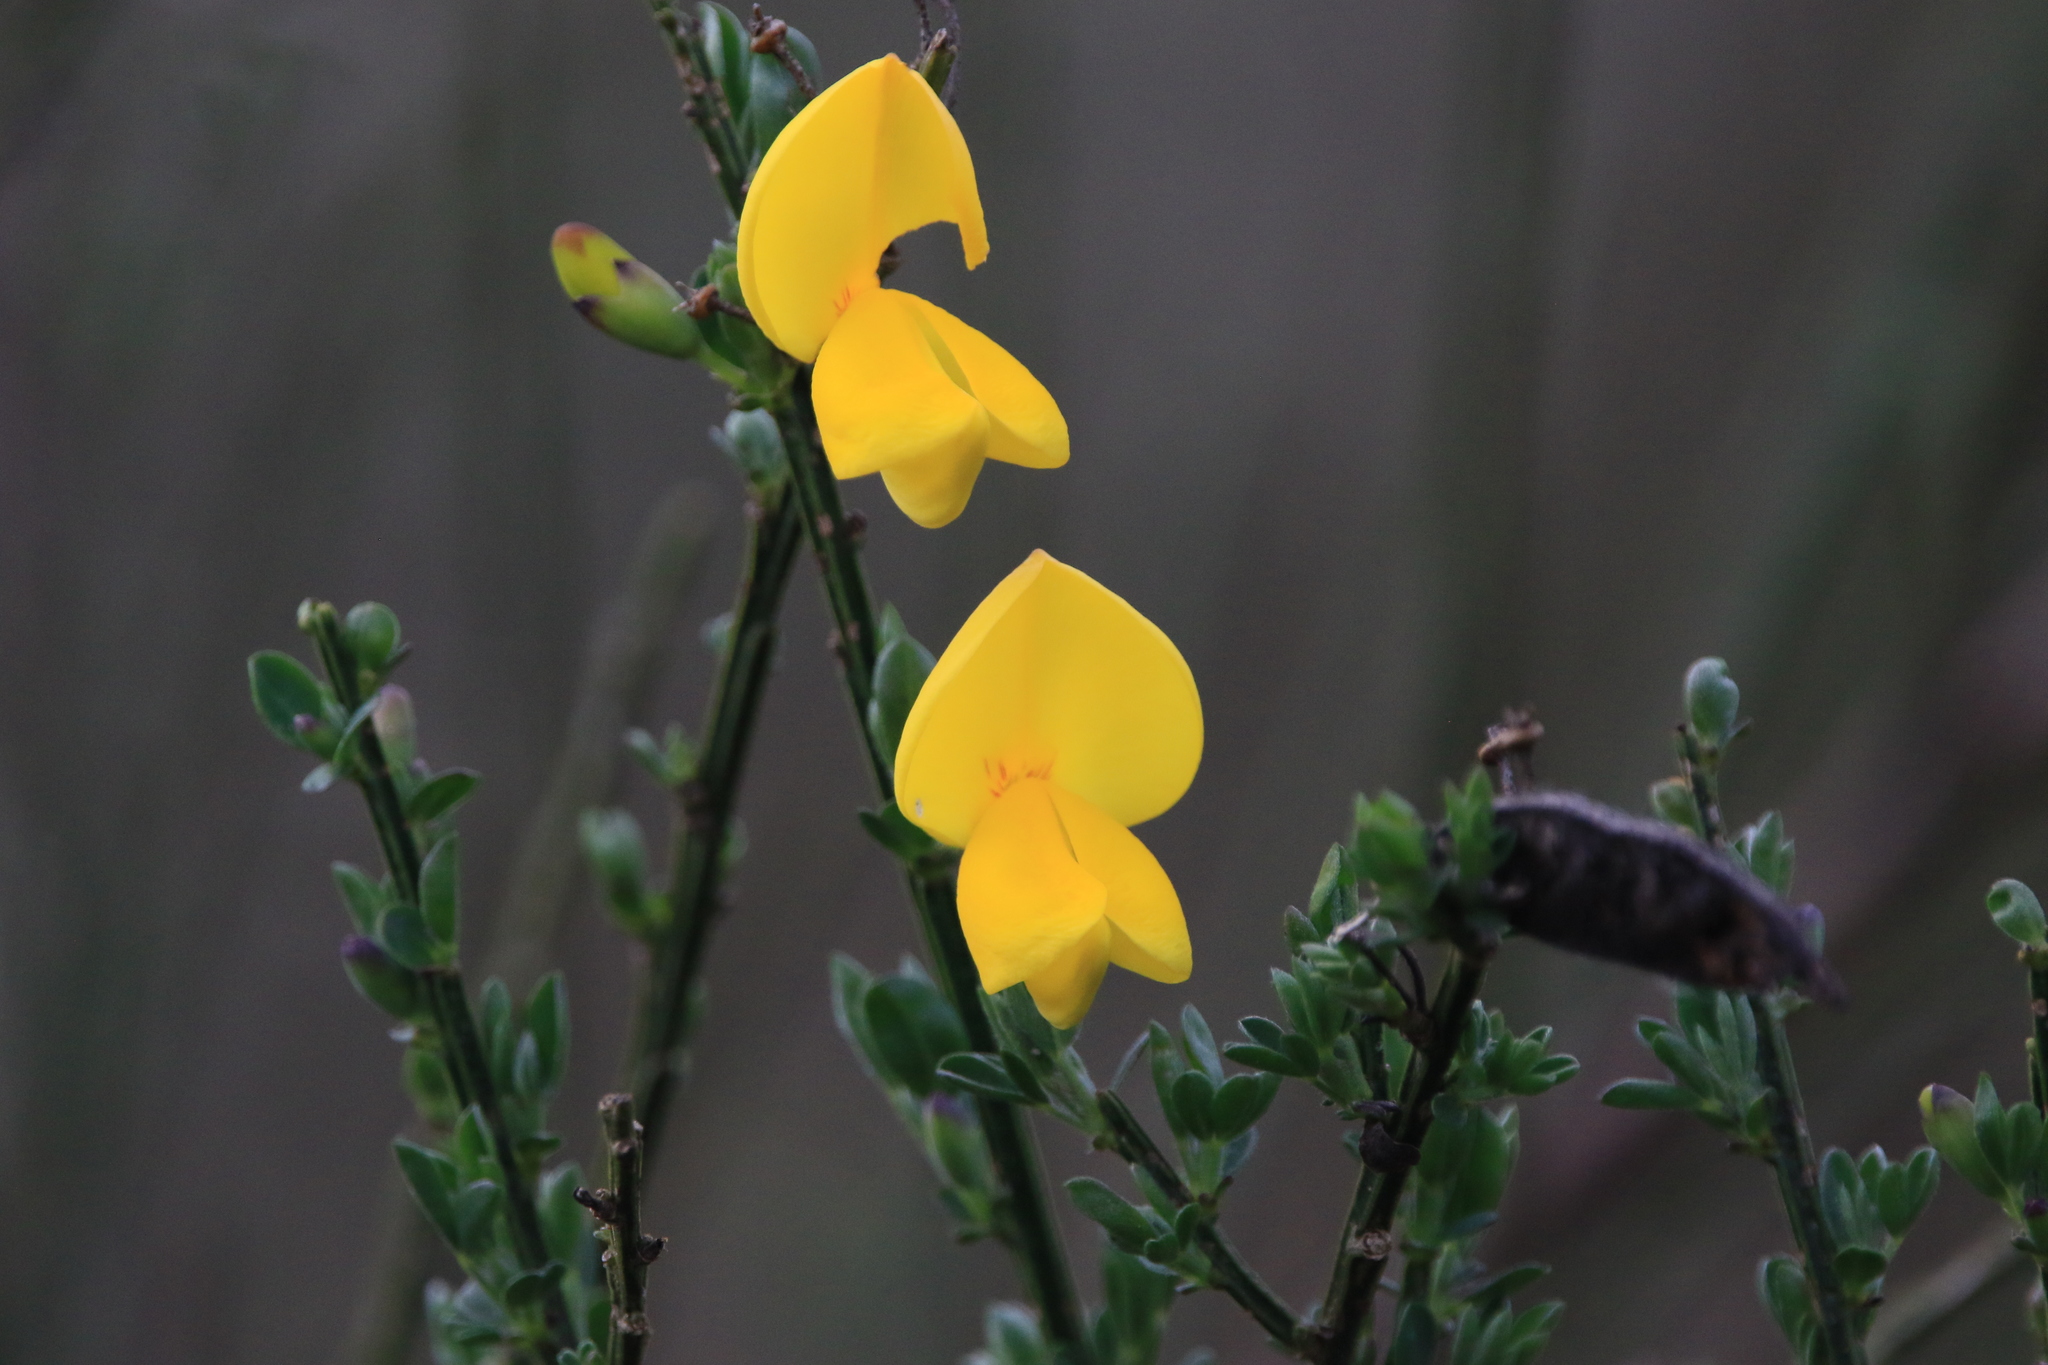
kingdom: Plantae
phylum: Tracheophyta
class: Magnoliopsida
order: Fabales
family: Fabaceae
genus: Cytisus
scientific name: Cytisus scoparius
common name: Scotch broom
